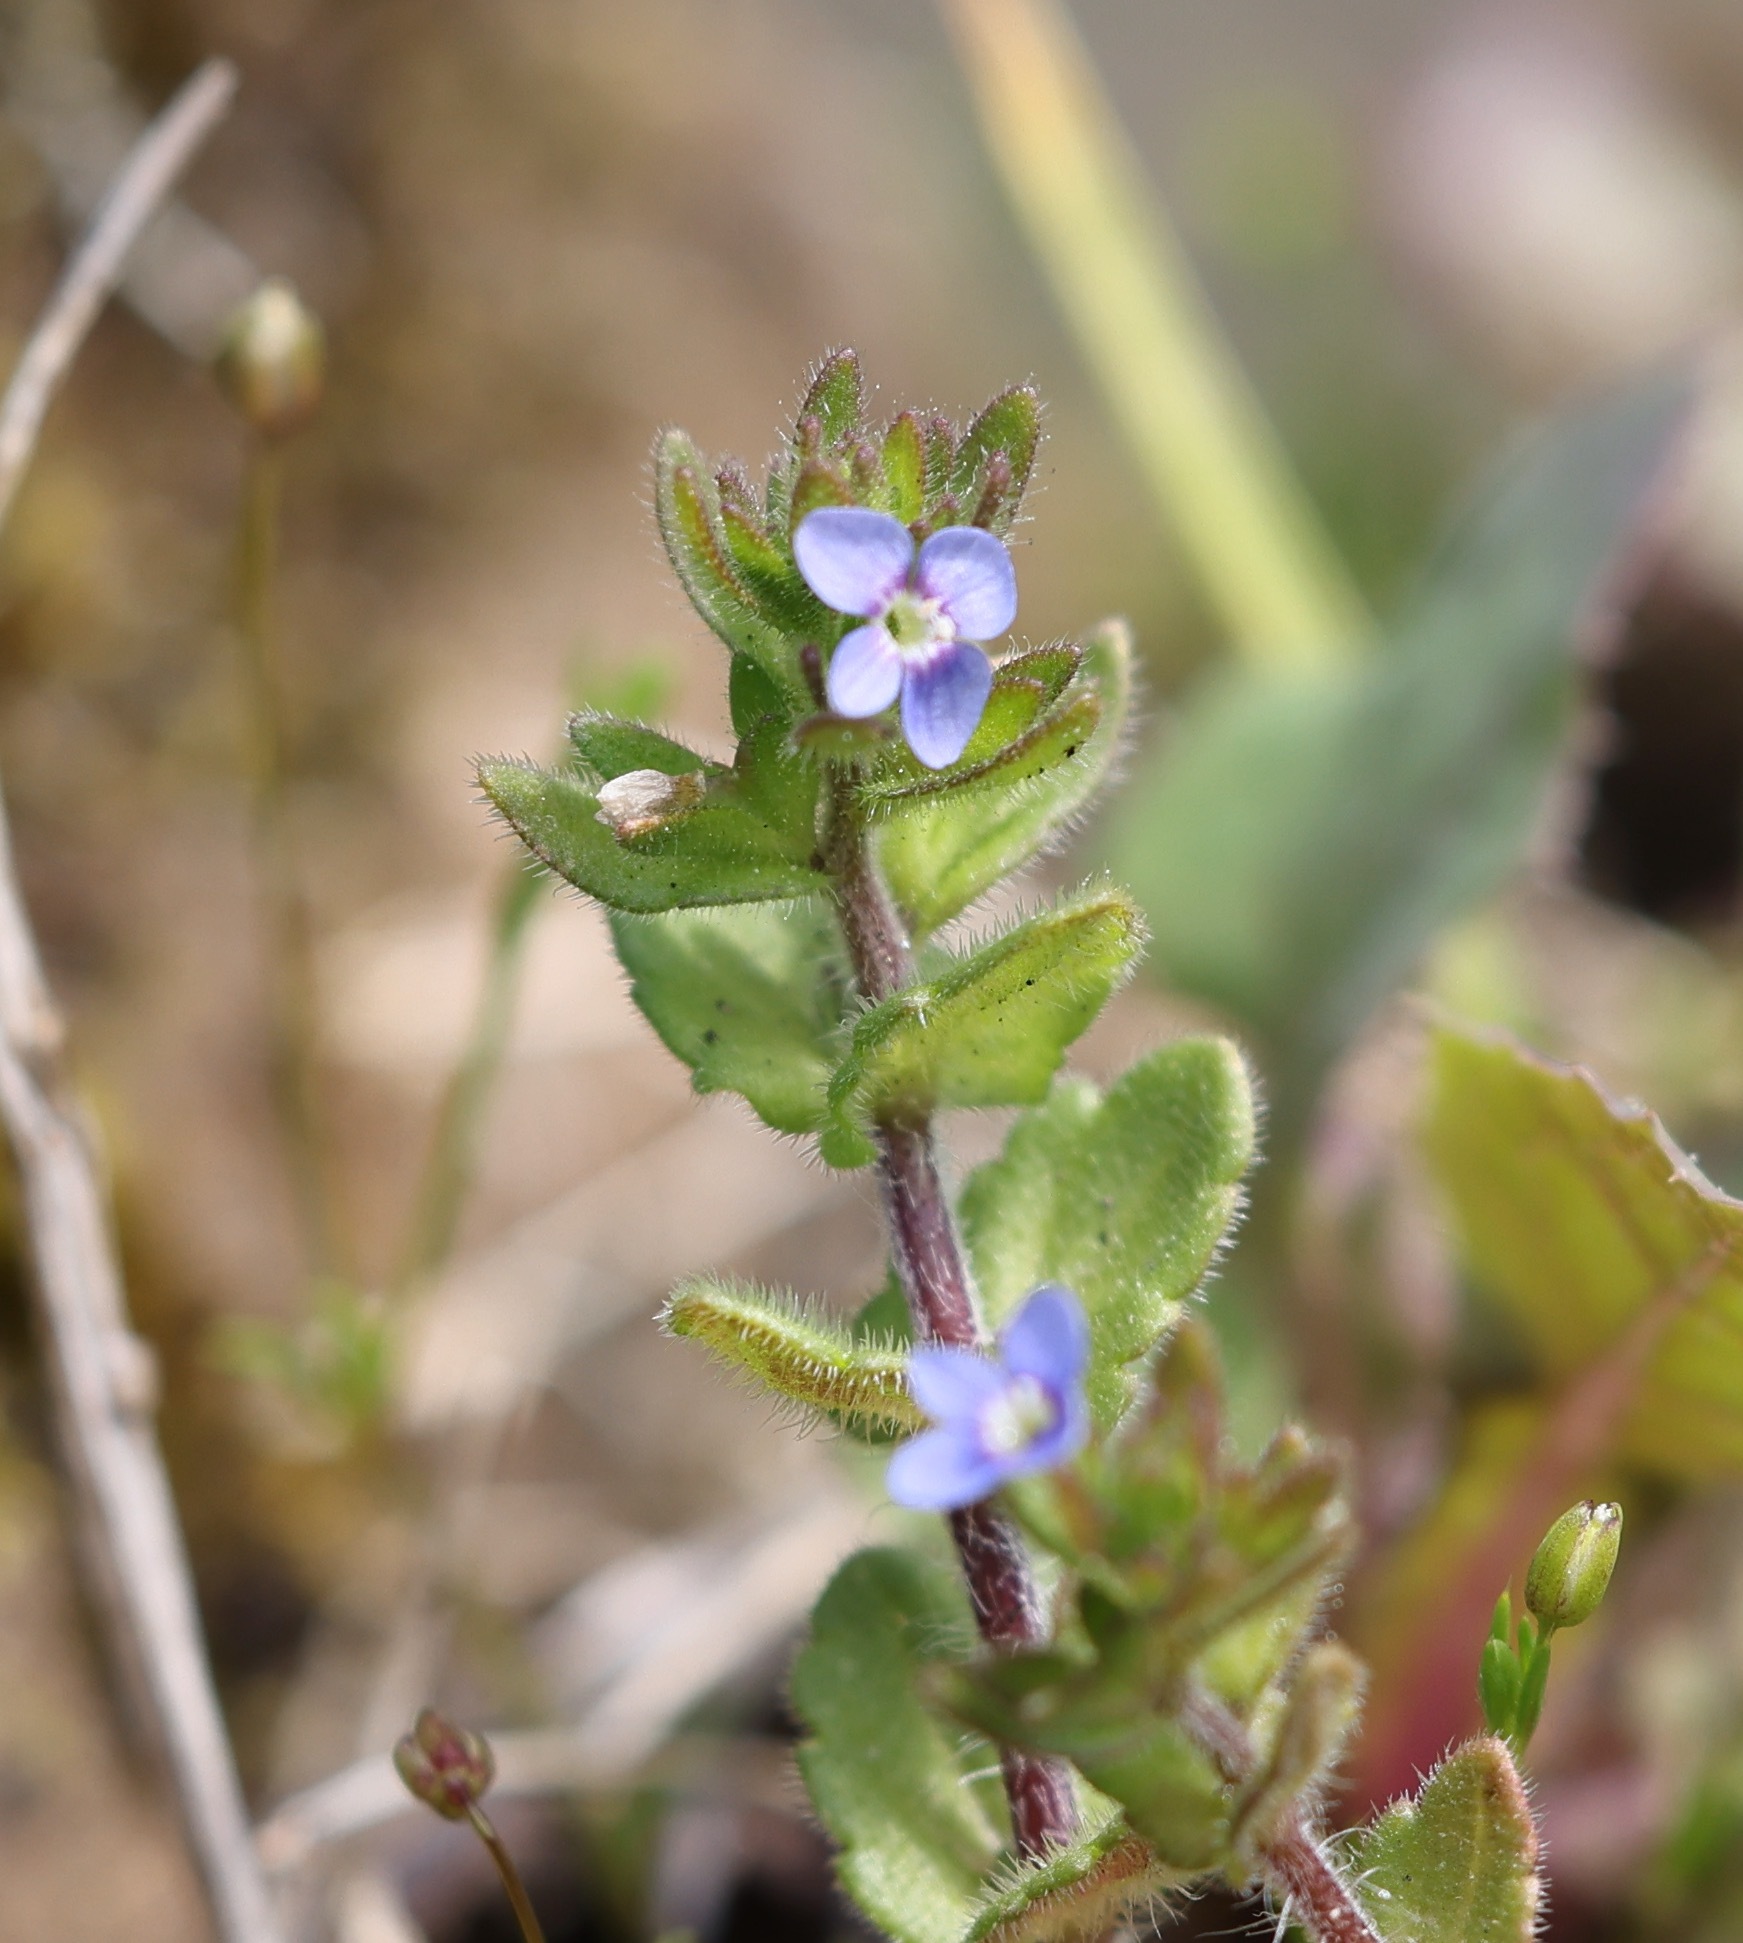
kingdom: Plantae
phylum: Tracheophyta
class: Magnoliopsida
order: Lamiales
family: Plantaginaceae
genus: Veronica
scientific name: Veronica arvensis
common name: Corn speedwell
